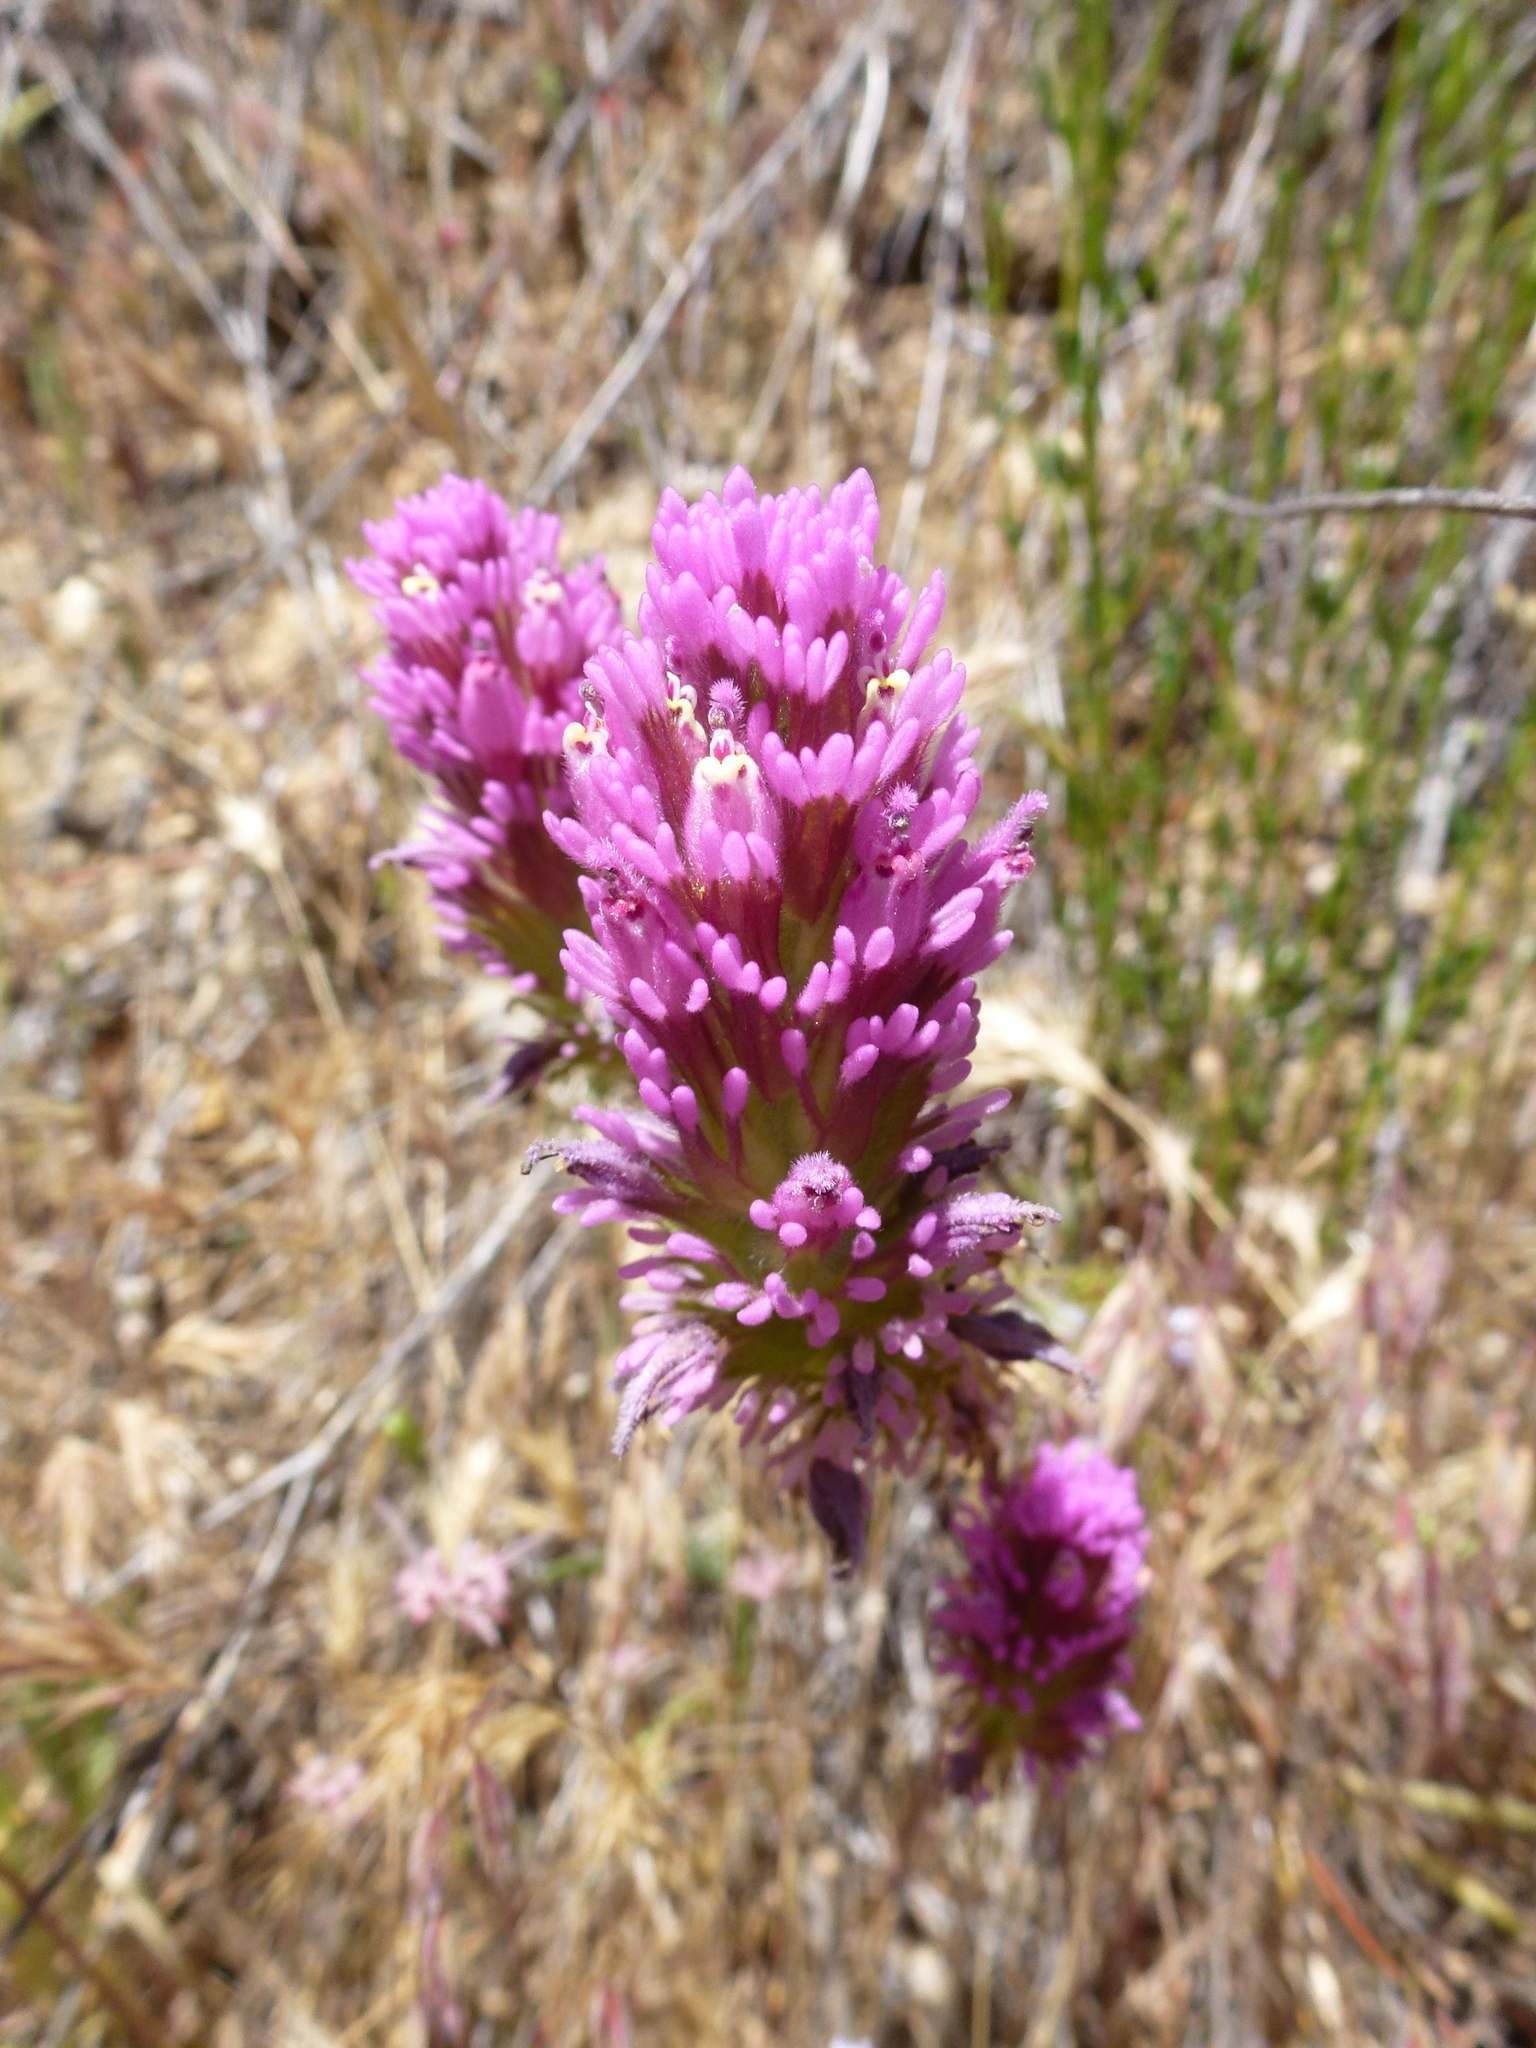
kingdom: Plantae
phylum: Tracheophyta
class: Magnoliopsida
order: Lamiales
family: Orobanchaceae
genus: Castilleja
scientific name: Castilleja exserta
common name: Purple owl-clover
